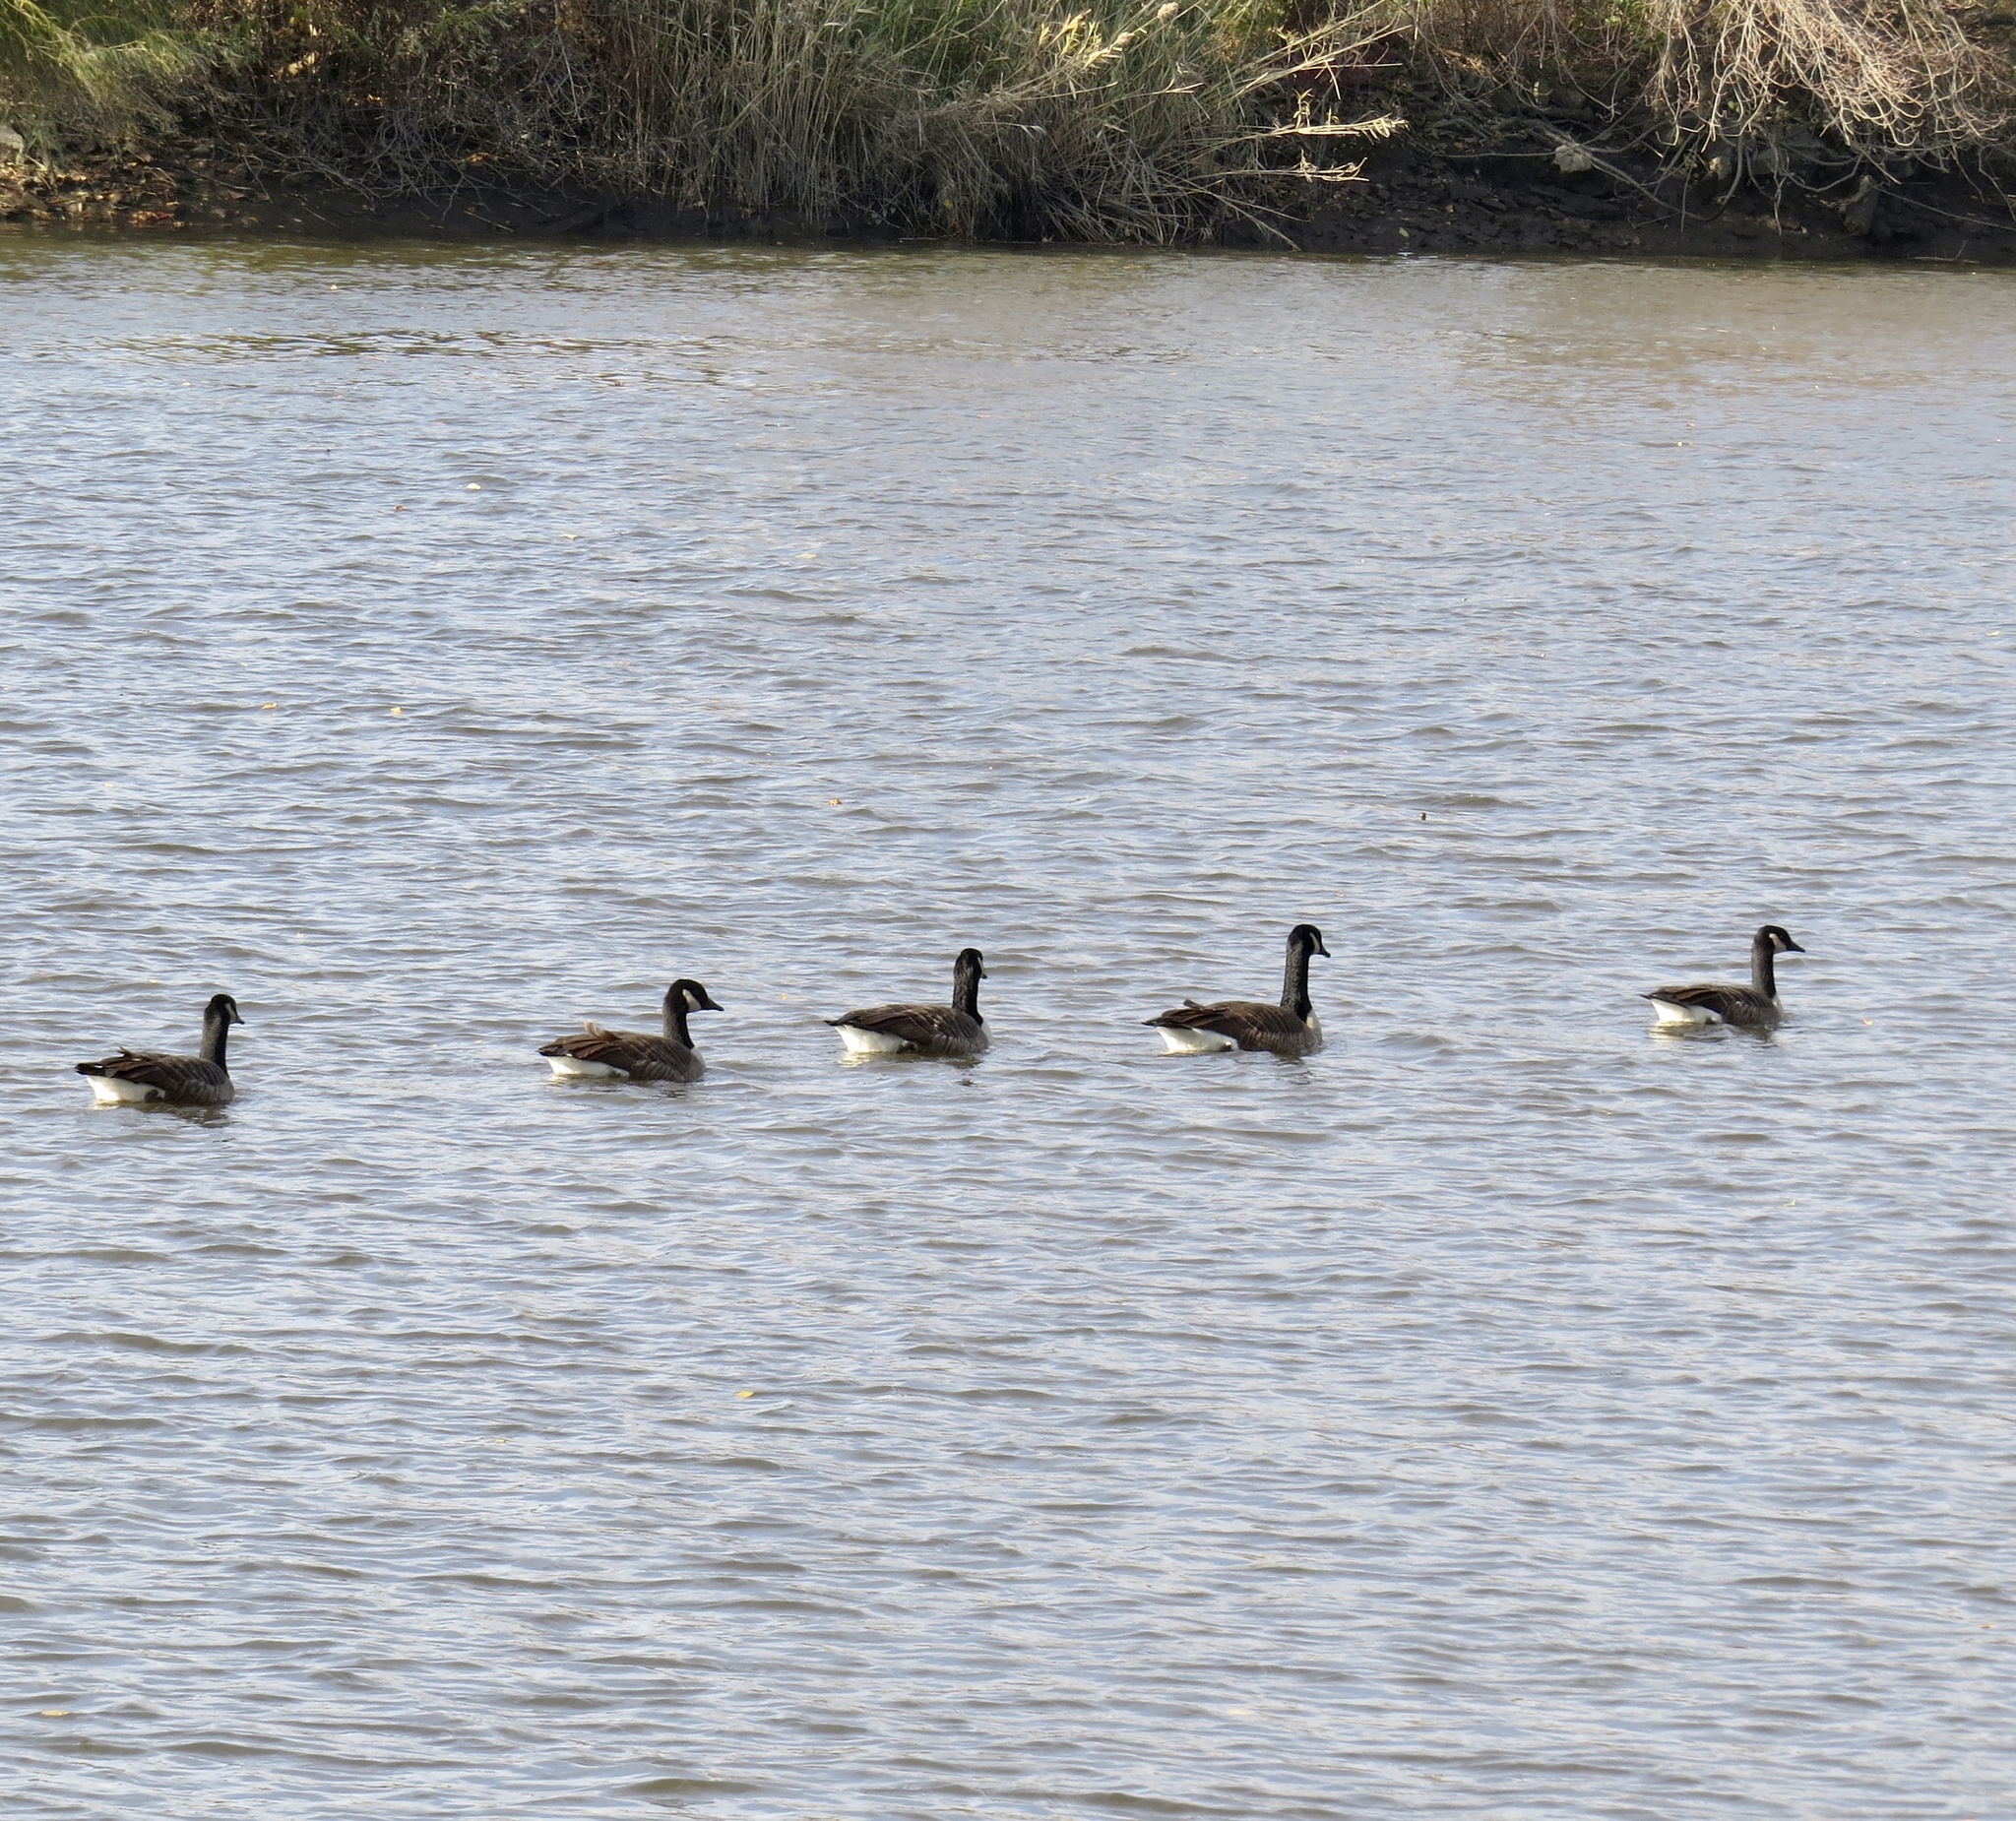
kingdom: Animalia
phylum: Chordata
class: Aves
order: Anseriformes
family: Anatidae
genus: Branta
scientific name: Branta canadensis
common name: Canada goose
